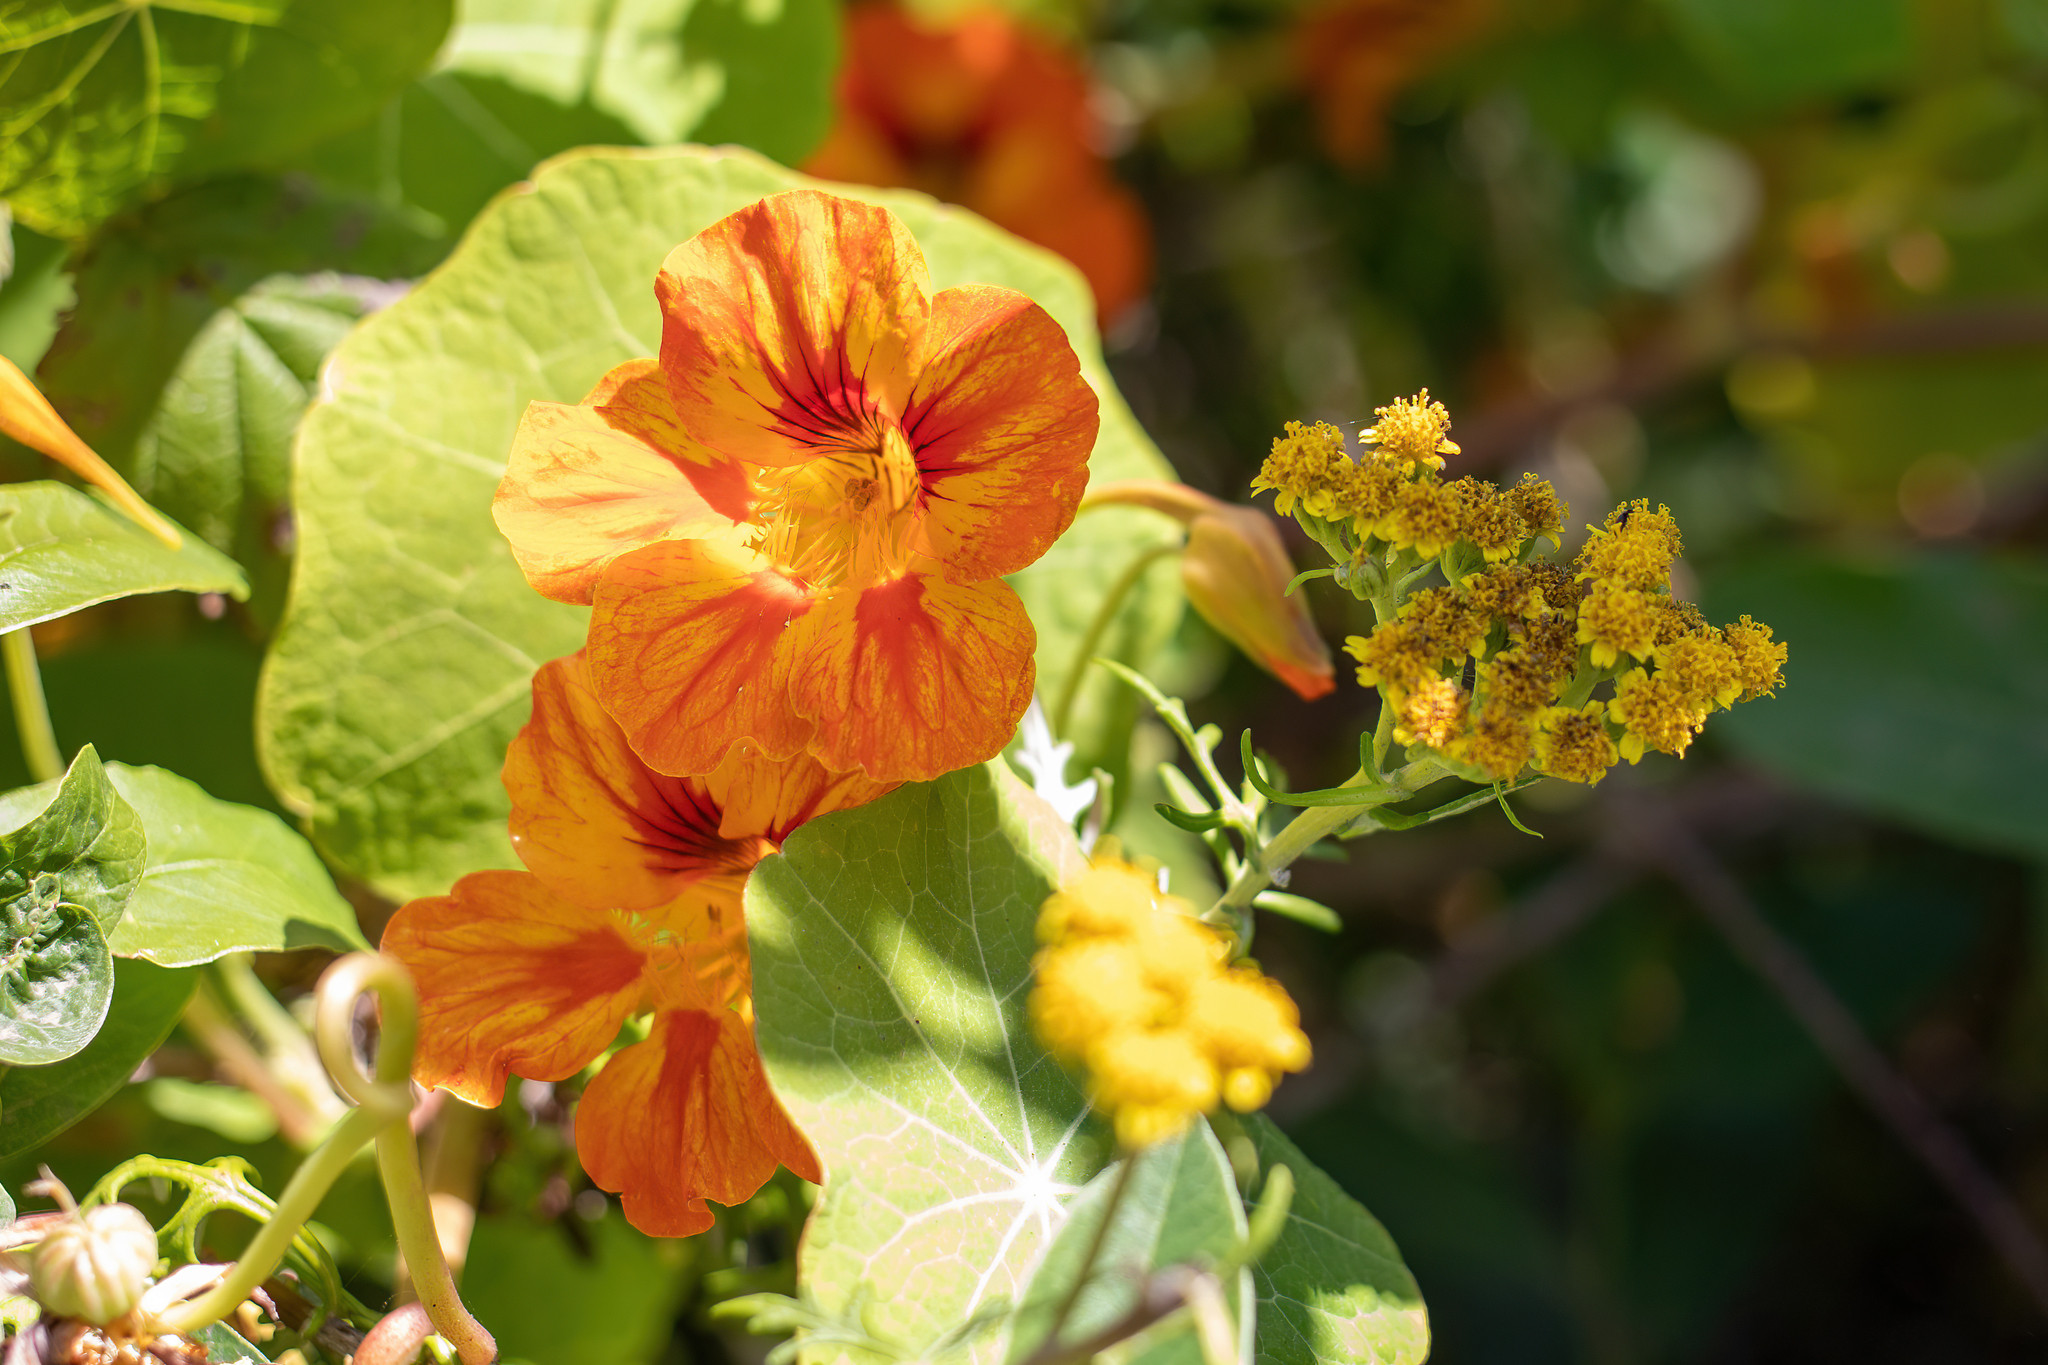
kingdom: Plantae
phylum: Tracheophyta
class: Magnoliopsida
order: Brassicales
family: Tropaeolaceae
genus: Tropaeolum
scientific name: Tropaeolum majus
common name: Nasturtium
